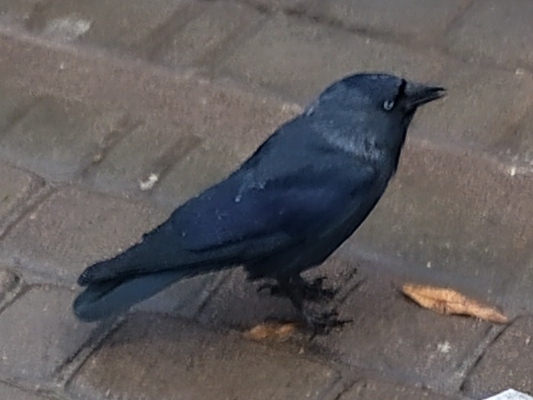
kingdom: Animalia
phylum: Chordata
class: Aves
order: Passeriformes
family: Corvidae
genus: Coloeus
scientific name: Coloeus monedula
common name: Western jackdaw
